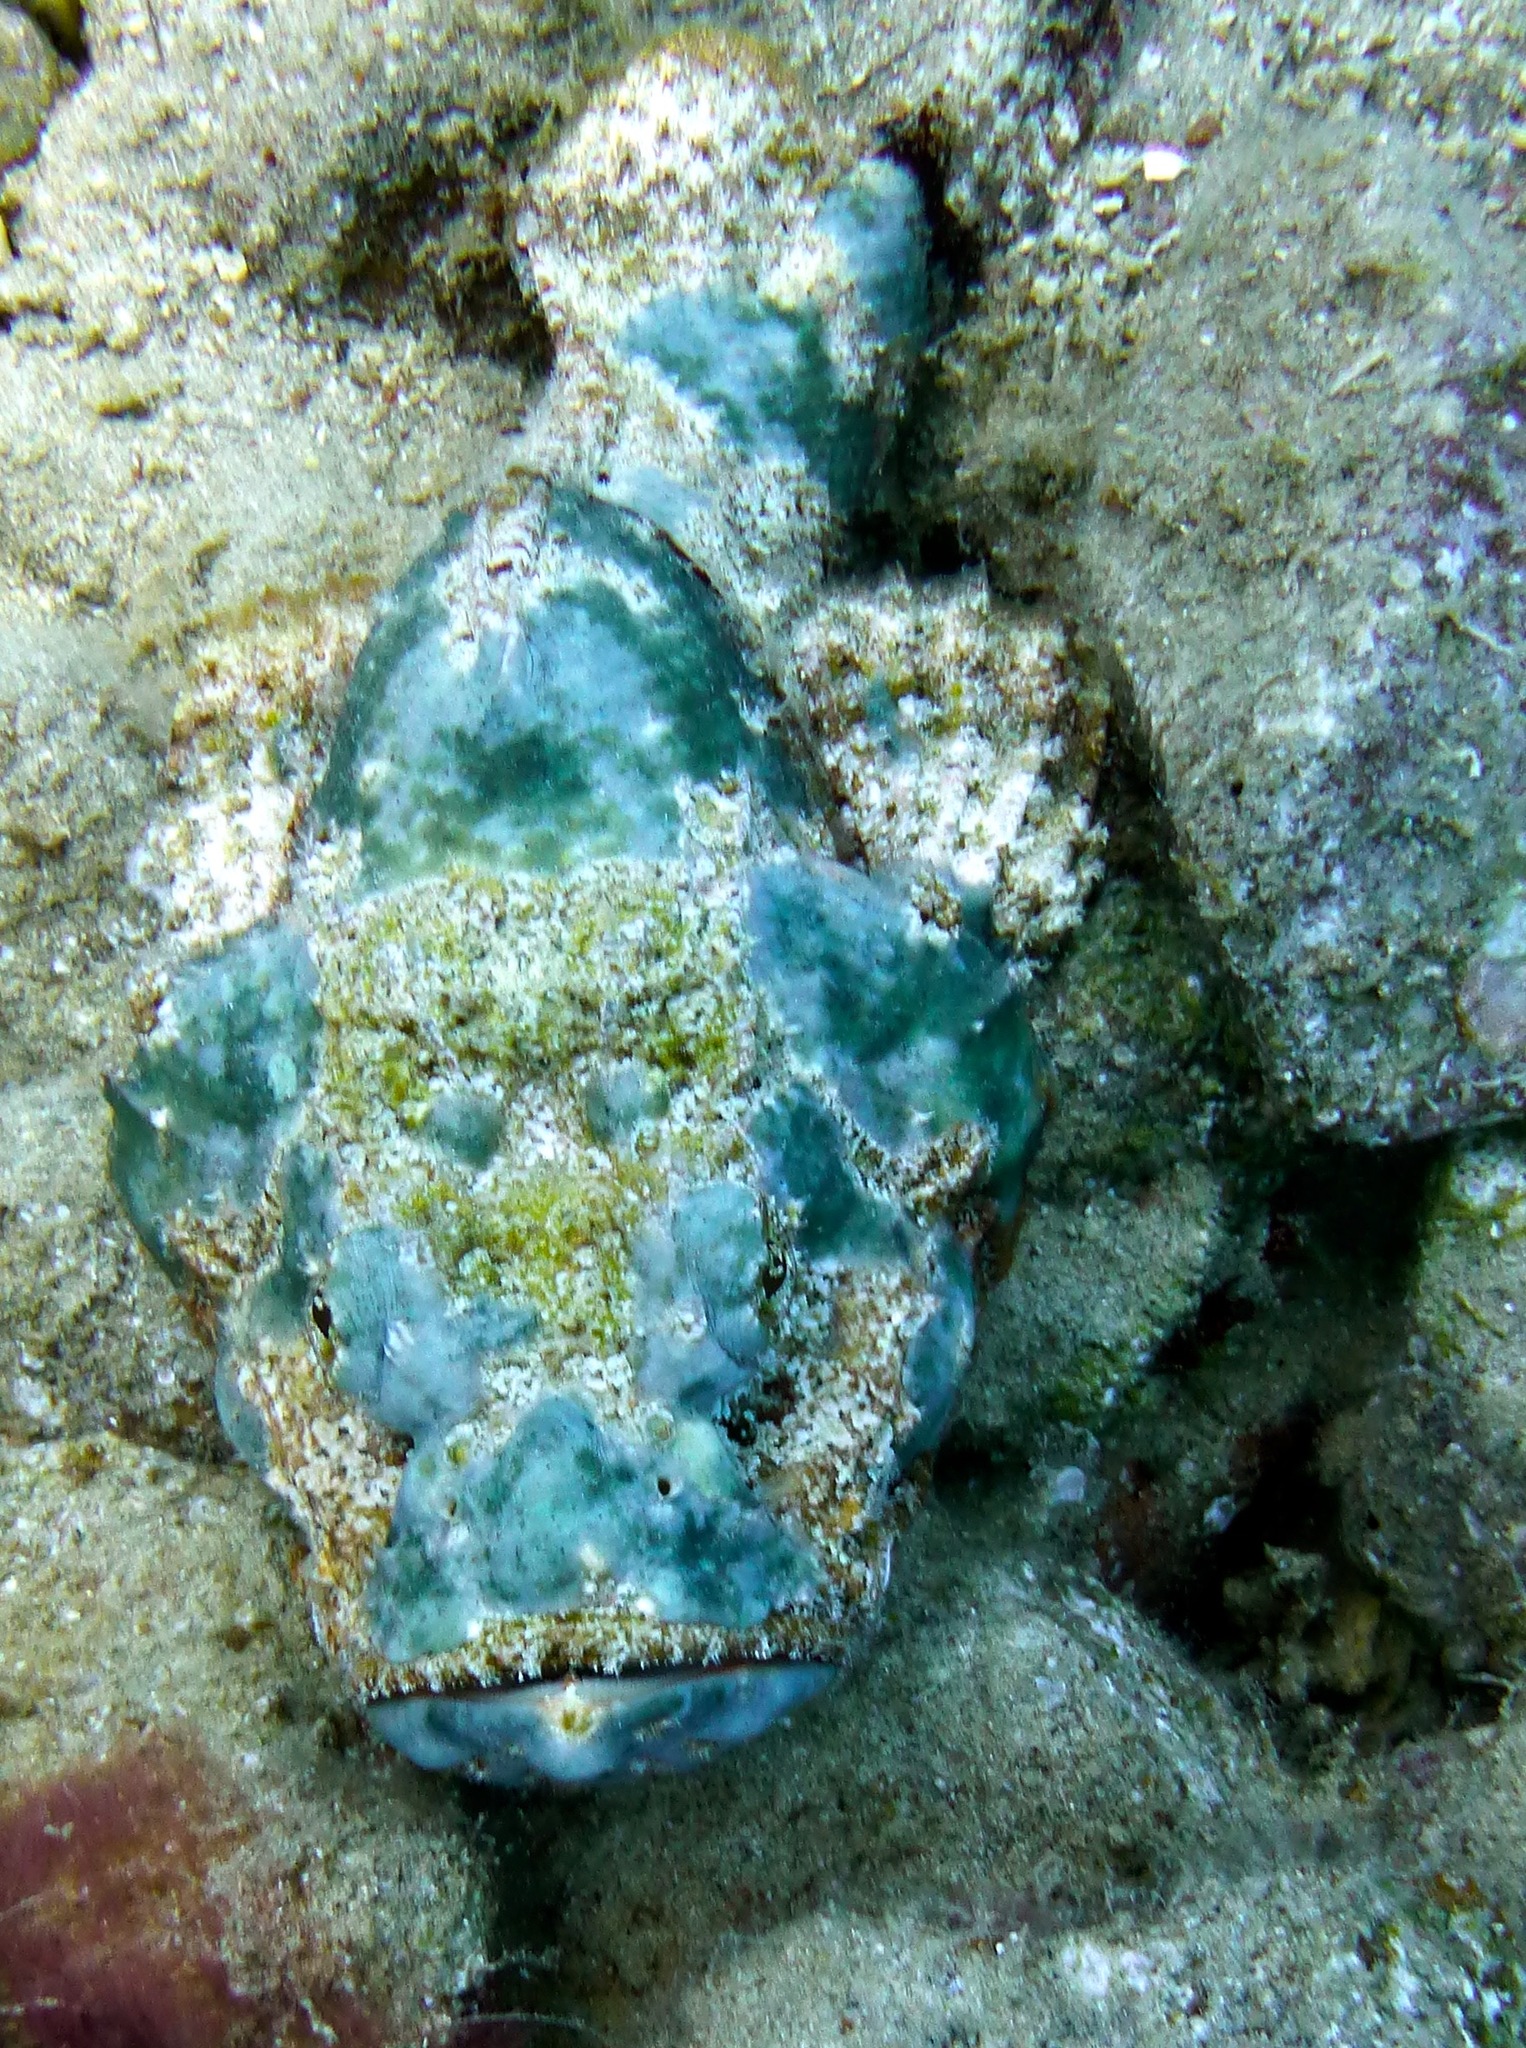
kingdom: Animalia
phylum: Chordata
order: Scorpaeniformes
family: Scorpaenidae
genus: Scorpaenopsis
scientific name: Scorpaenopsis diabolus
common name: False stonefish
